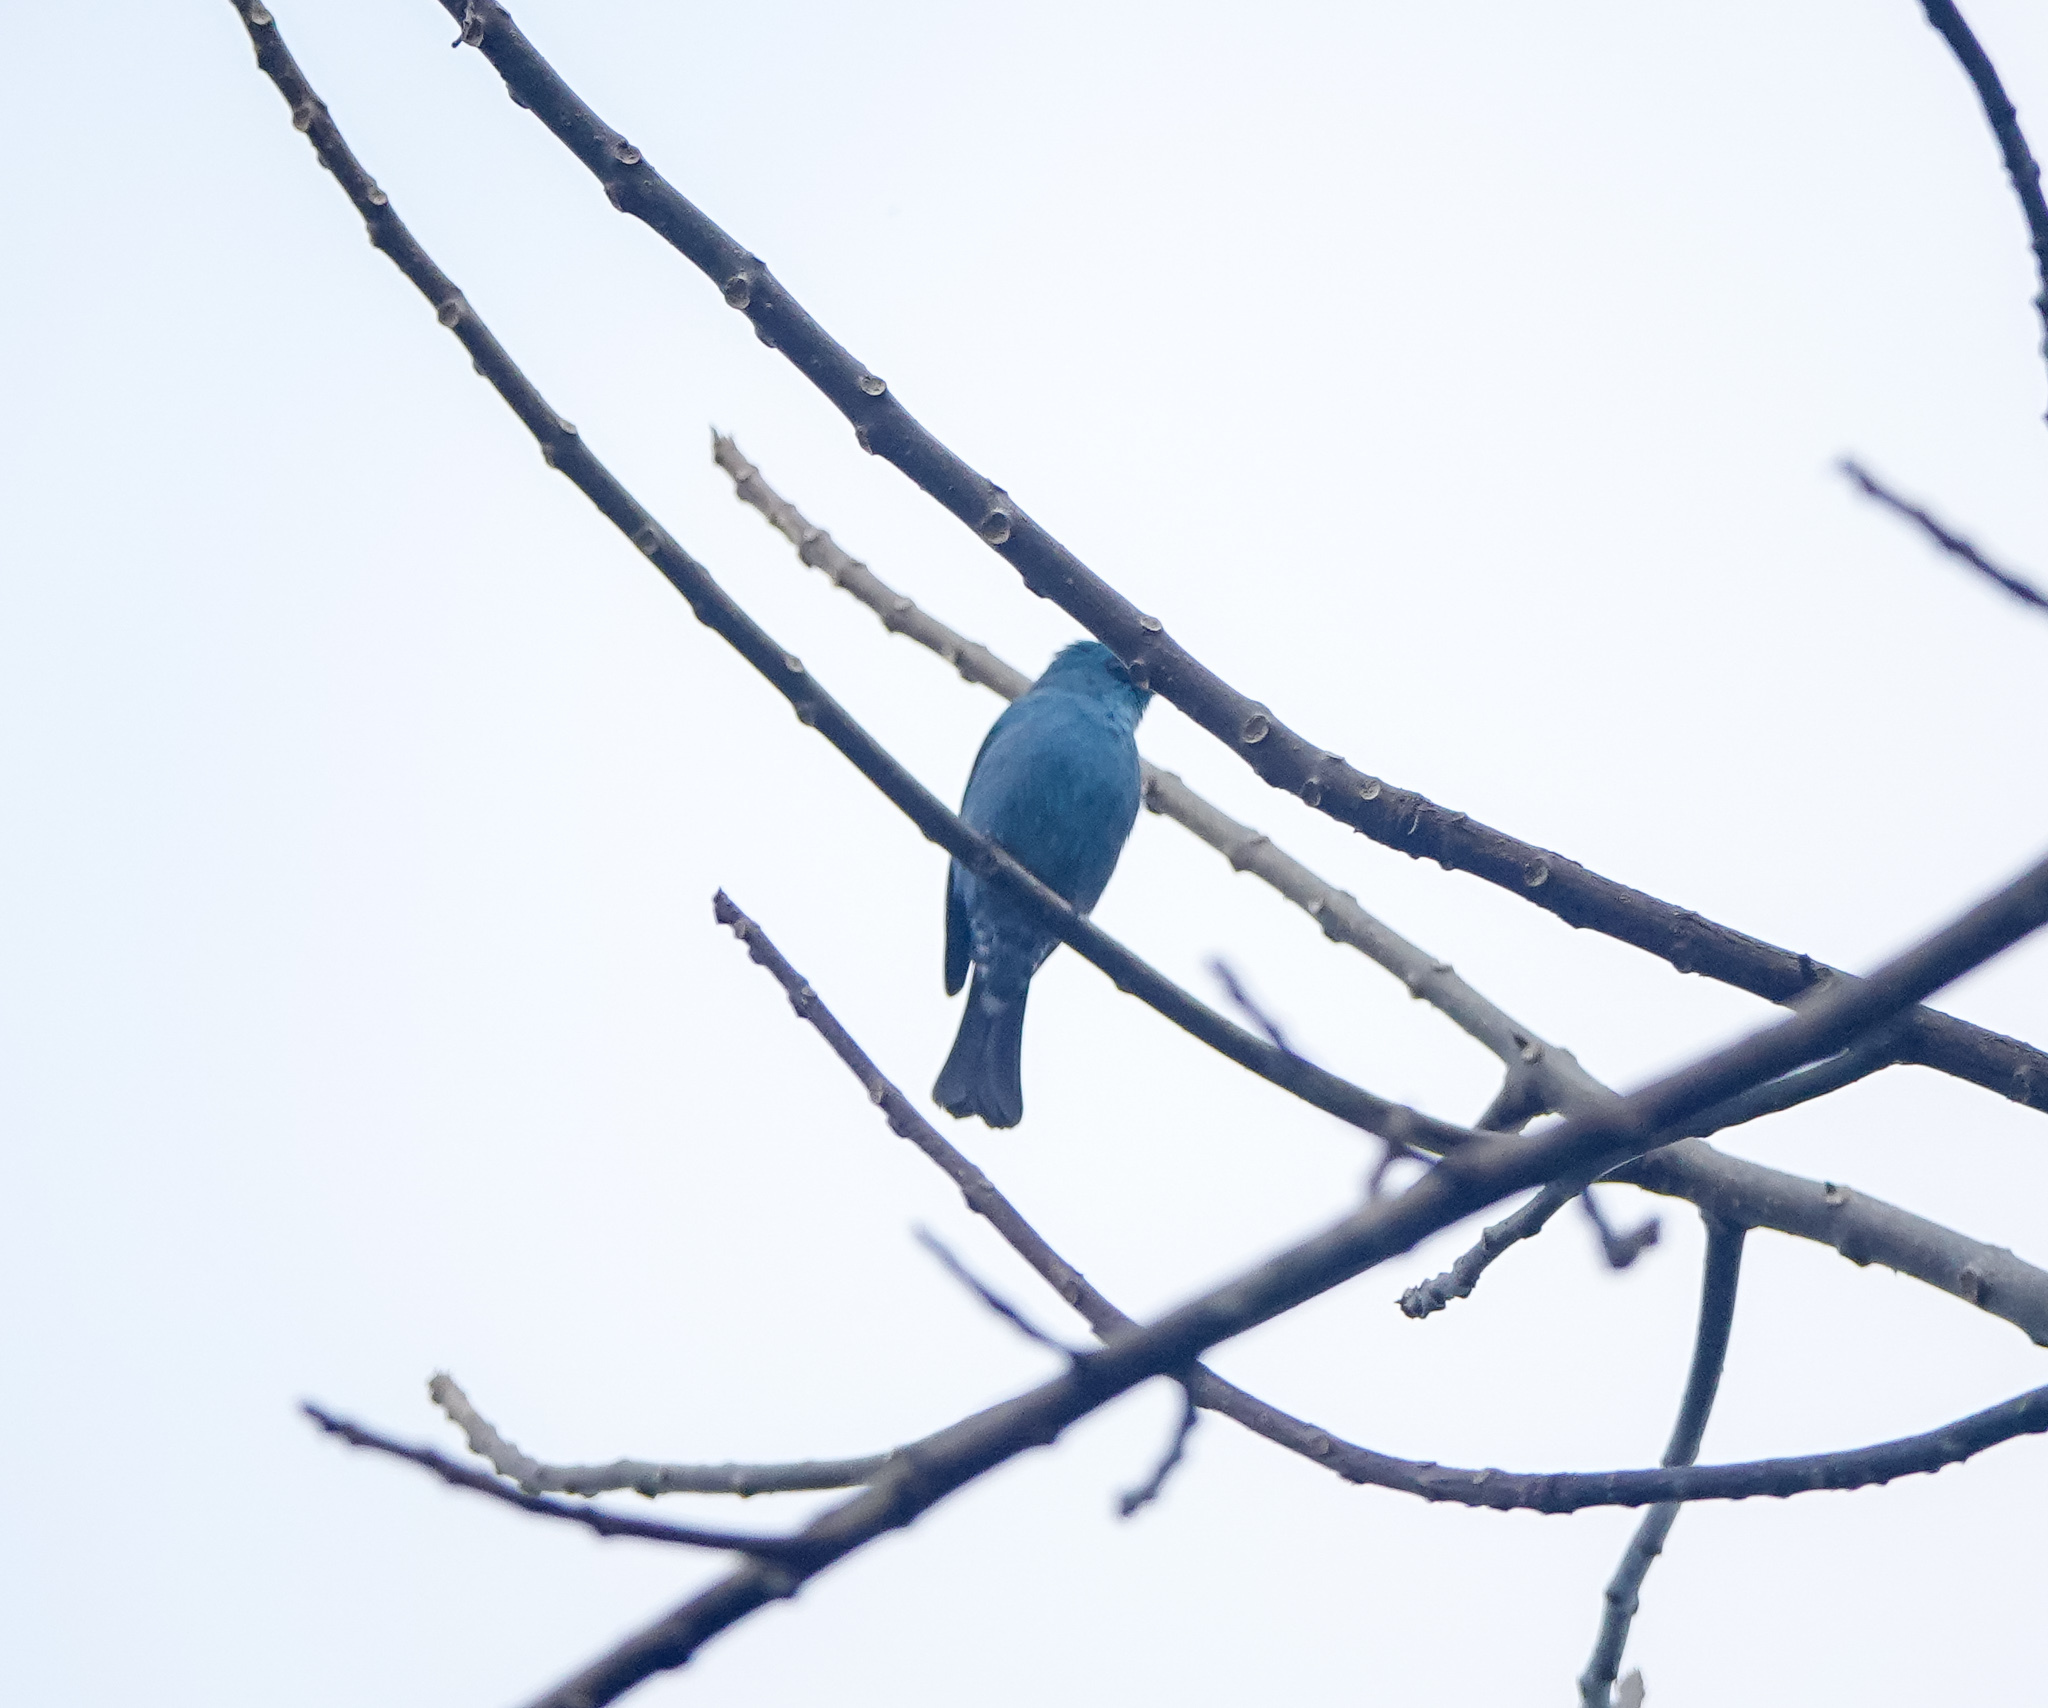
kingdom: Animalia
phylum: Chordata
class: Aves
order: Passeriformes
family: Muscicapidae
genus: Eumyias
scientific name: Eumyias thalassinus
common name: Verditer flycatcher
